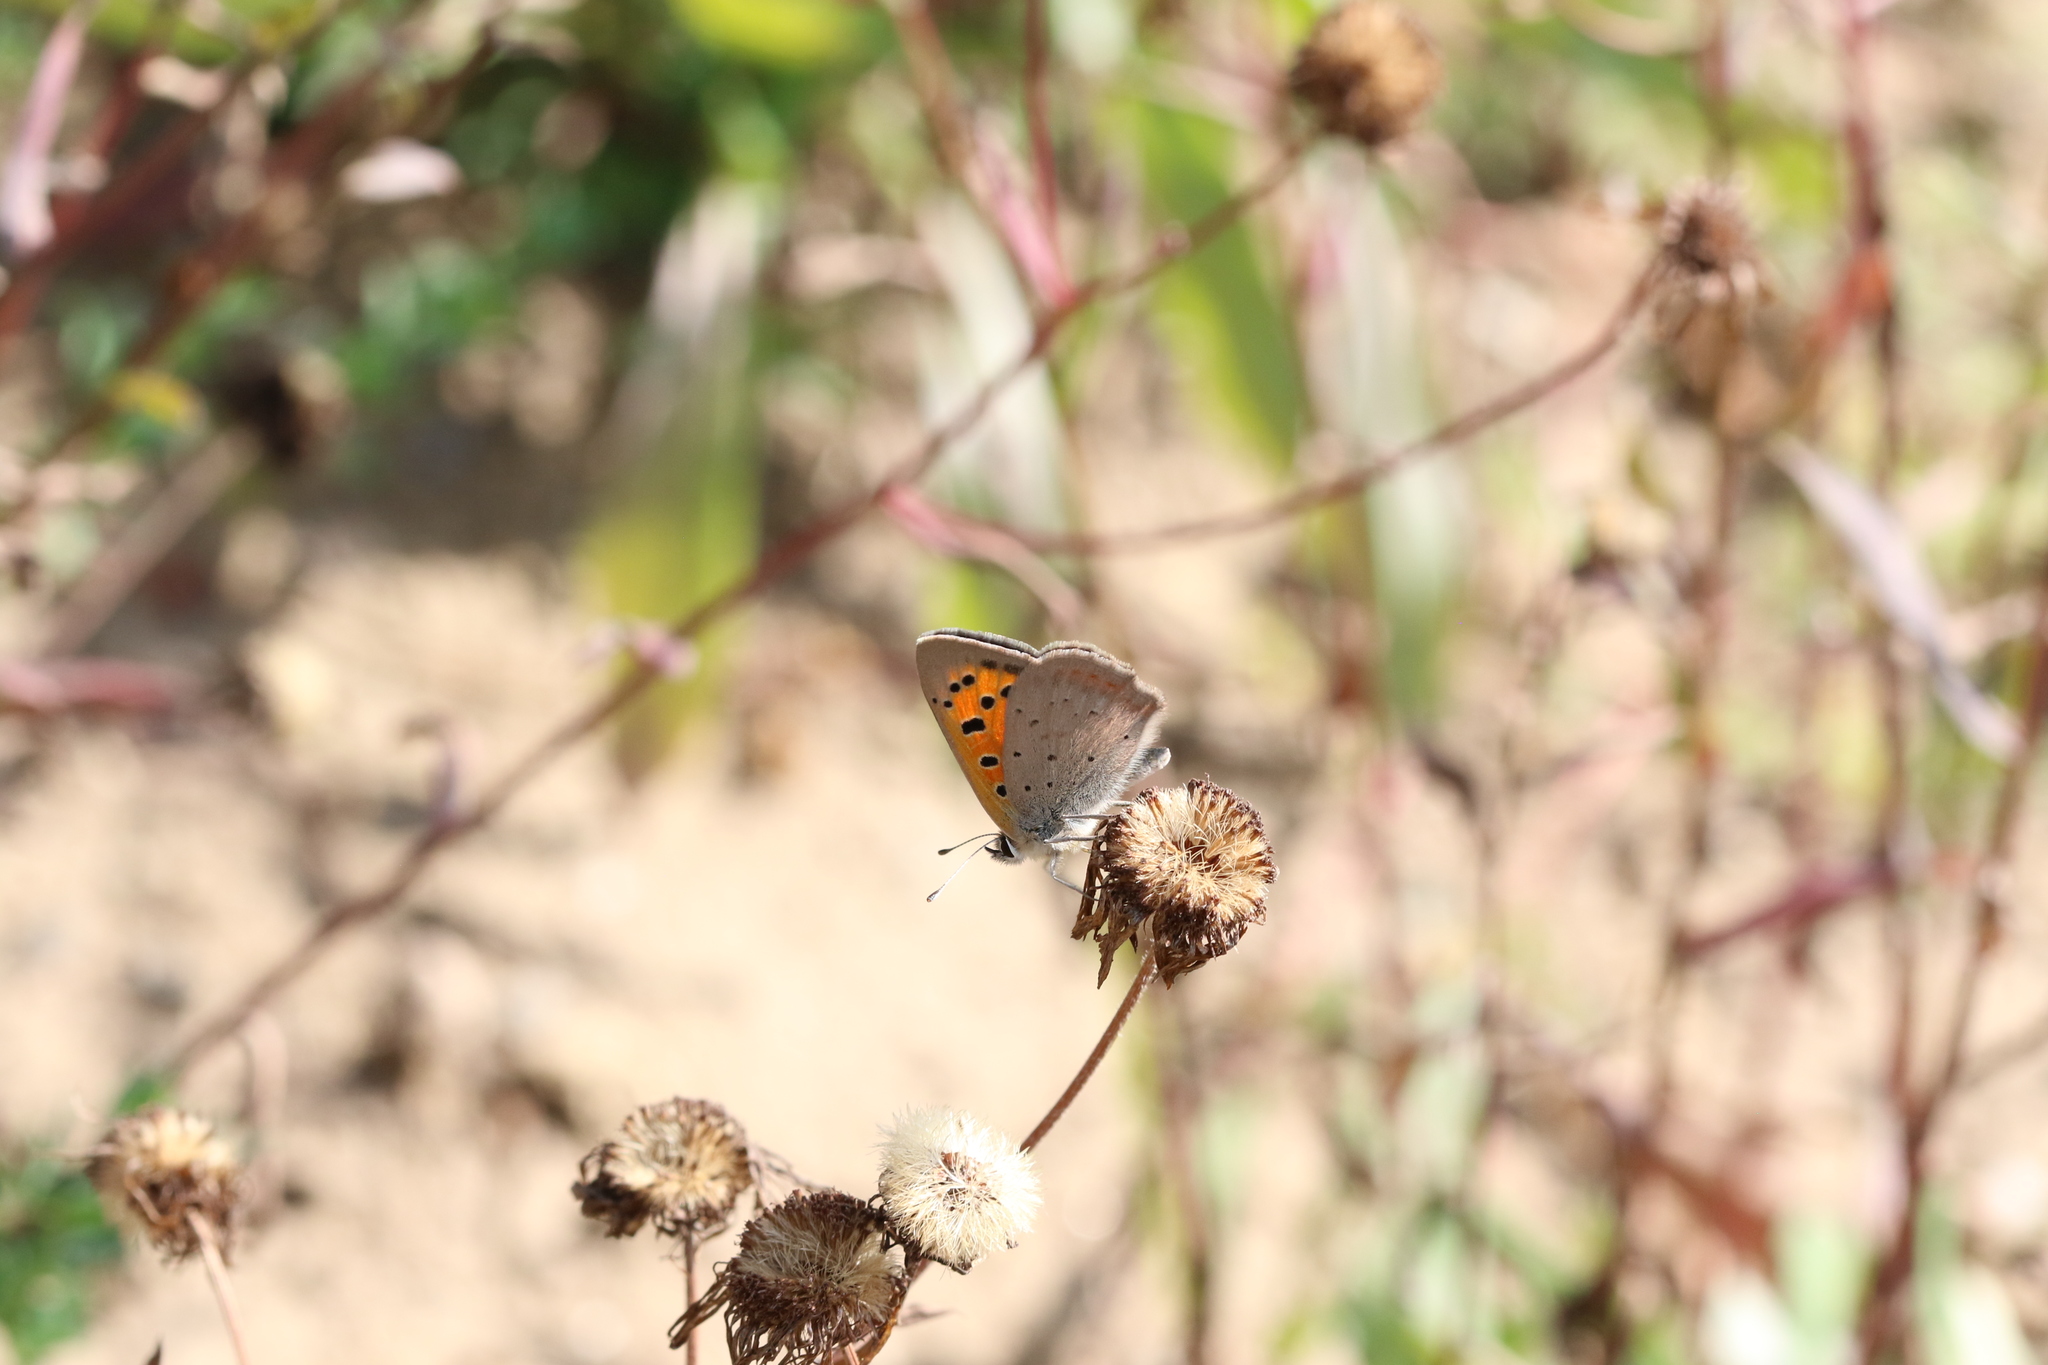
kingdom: Animalia
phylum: Arthropoda
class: Insecta
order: Lepidoptera
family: Lycaenidae
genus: Lycaena
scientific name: Lycaena phlaeas
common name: Small copper
